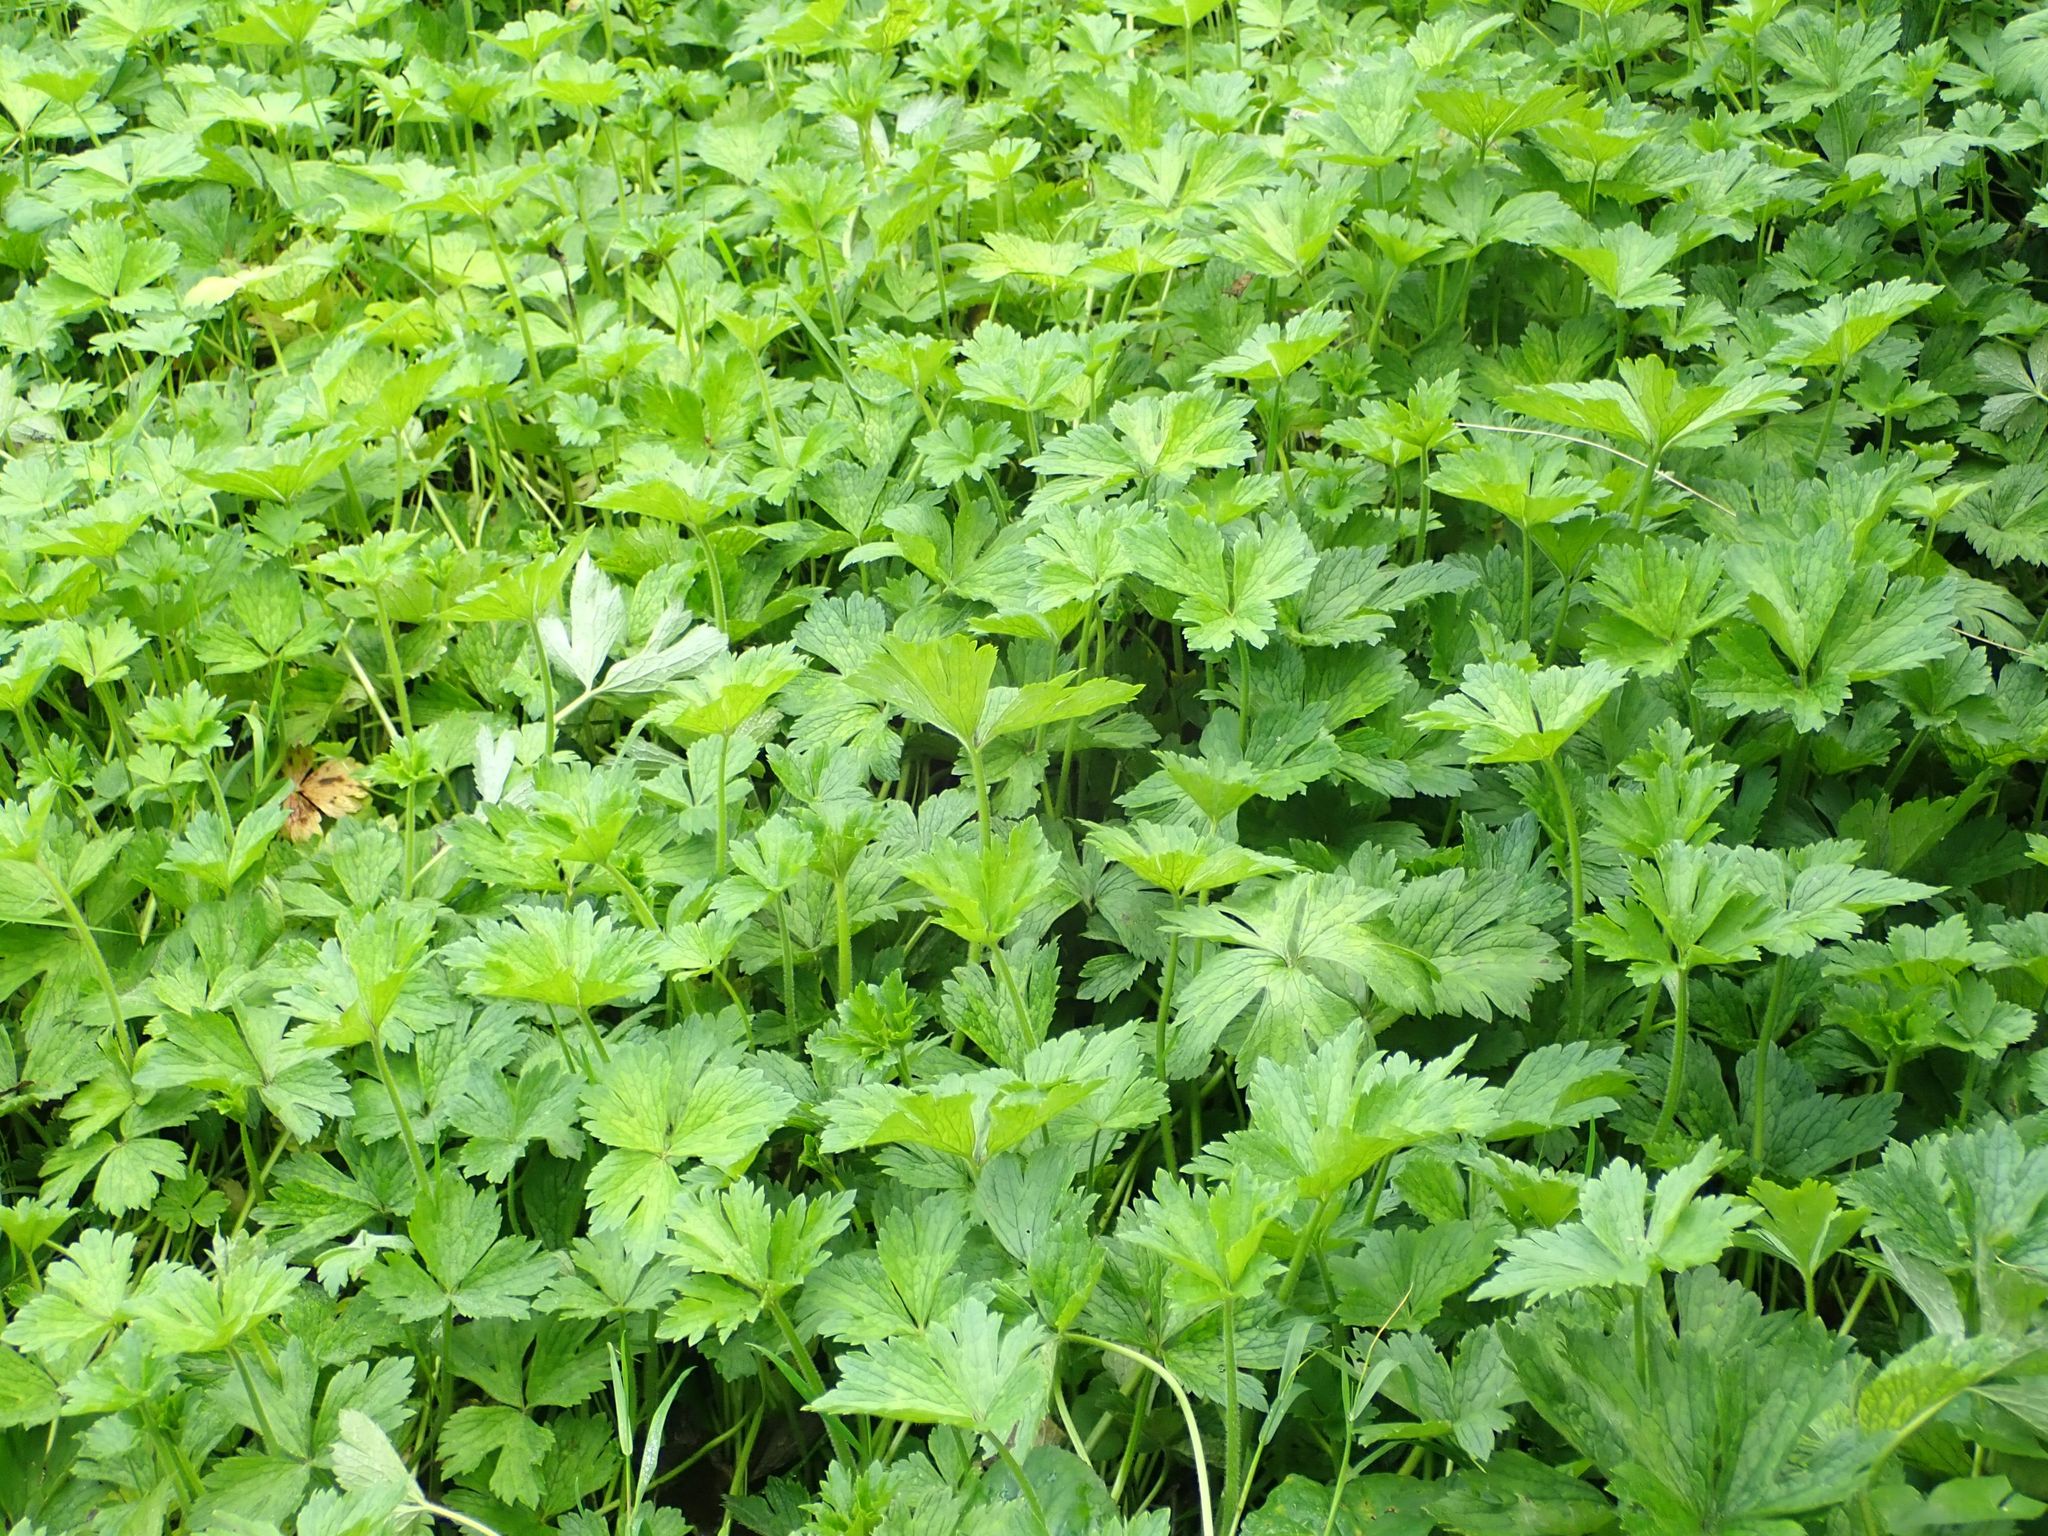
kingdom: Plantae
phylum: Tracheophyta
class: Magnoliopsida
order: Ranunculales
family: Ranunculaceae
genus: Ranunculus
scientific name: Ranunculus repens
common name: Creeping buttercup
